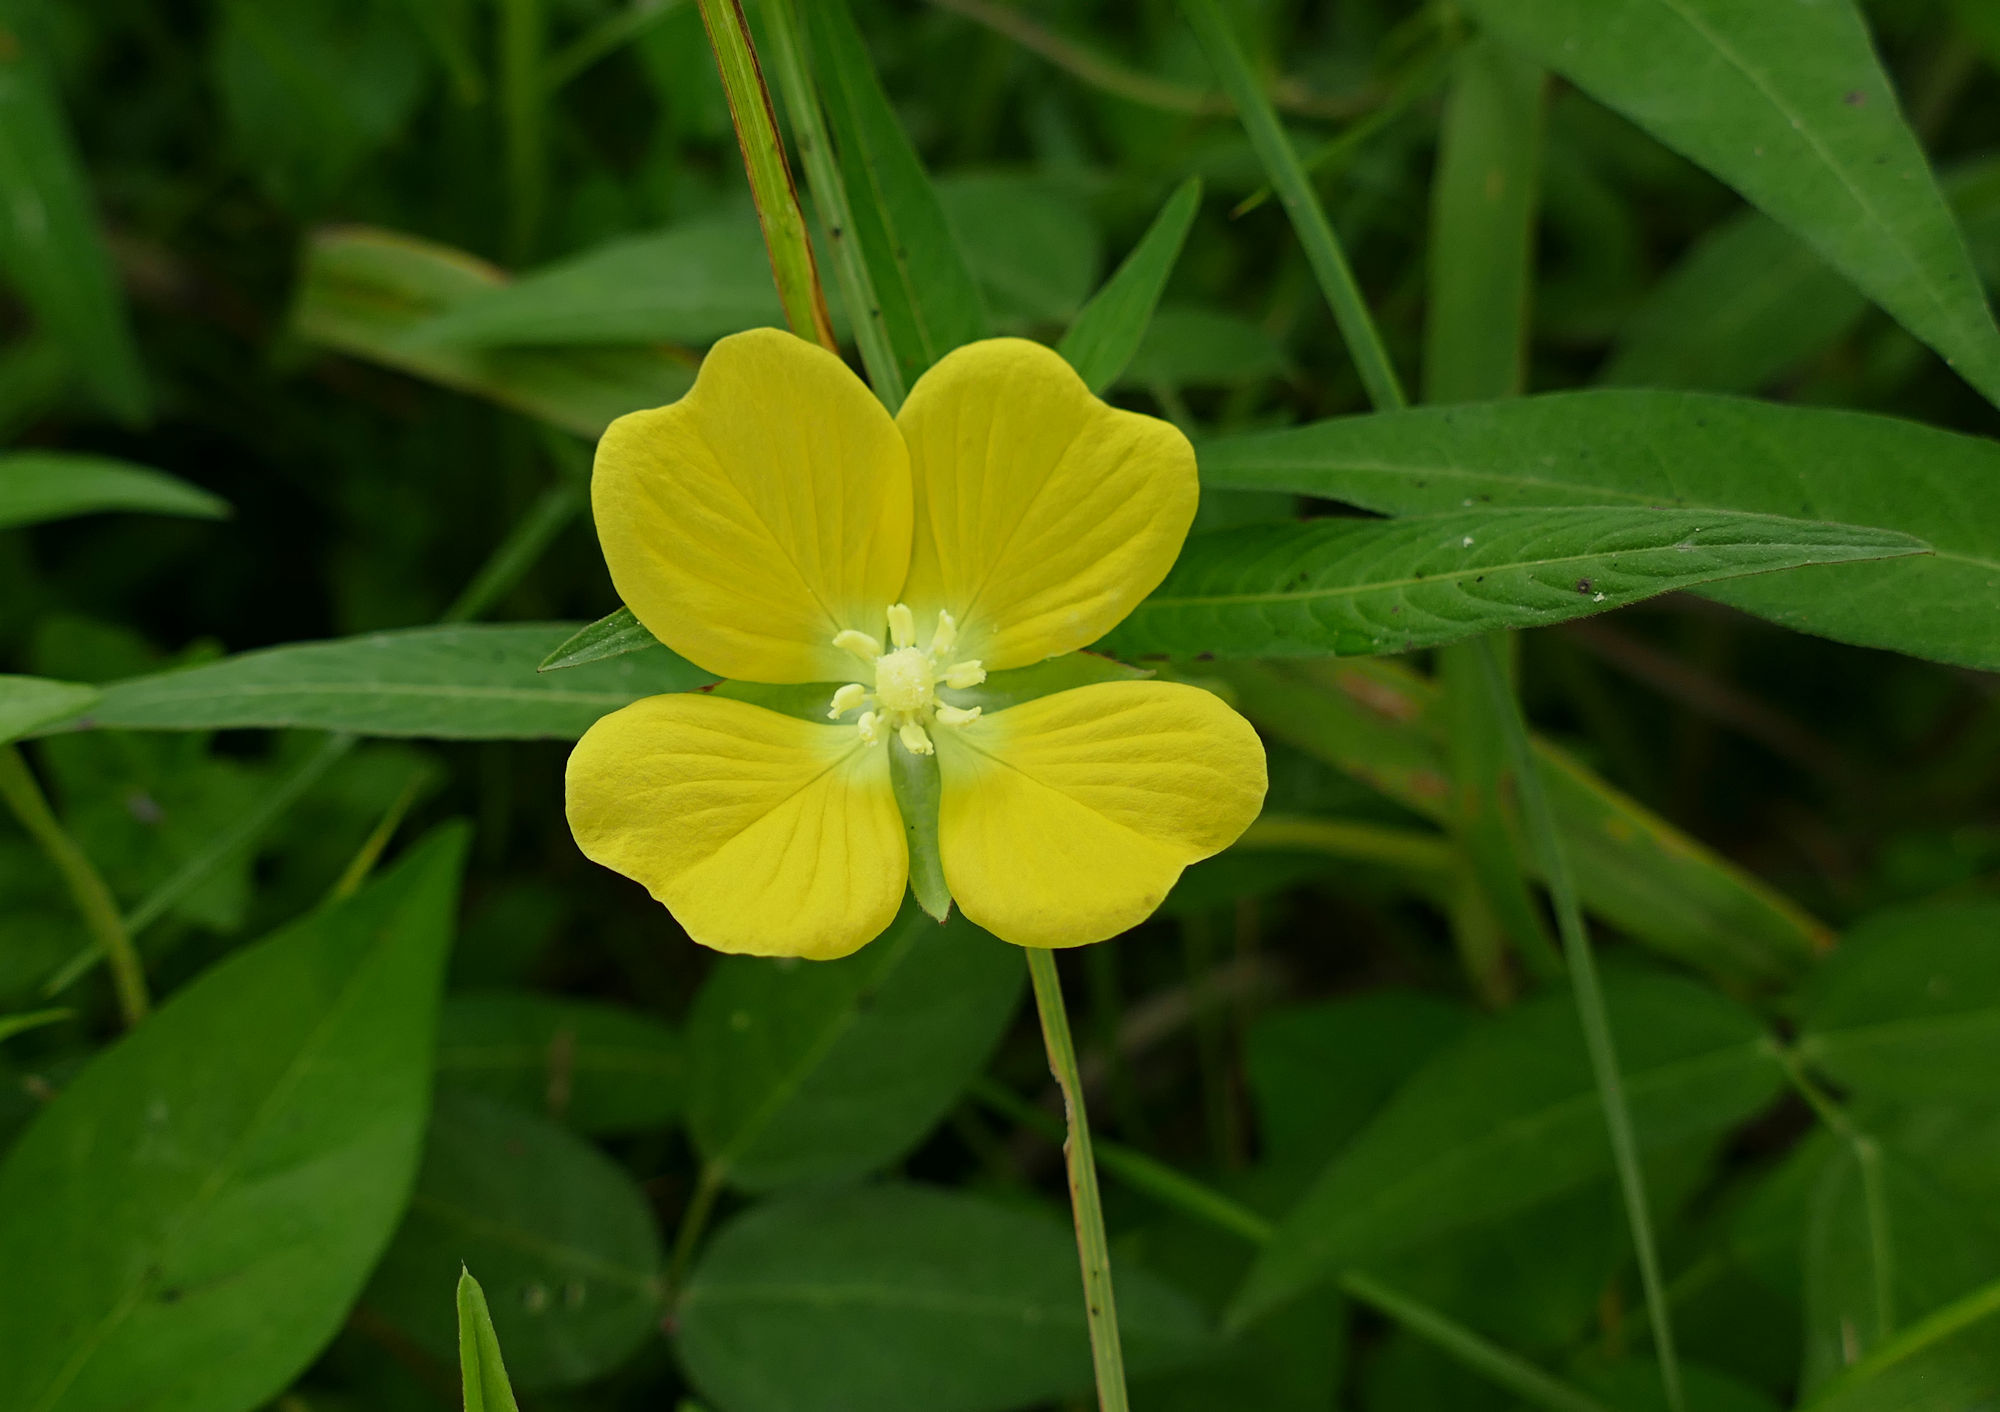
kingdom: Plantae
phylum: Tracheophyta
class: Magnoliopsida
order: Myrtales
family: Onagraceae
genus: Ludwigia
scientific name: Ludwigia octovalvis
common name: Water-primrose
